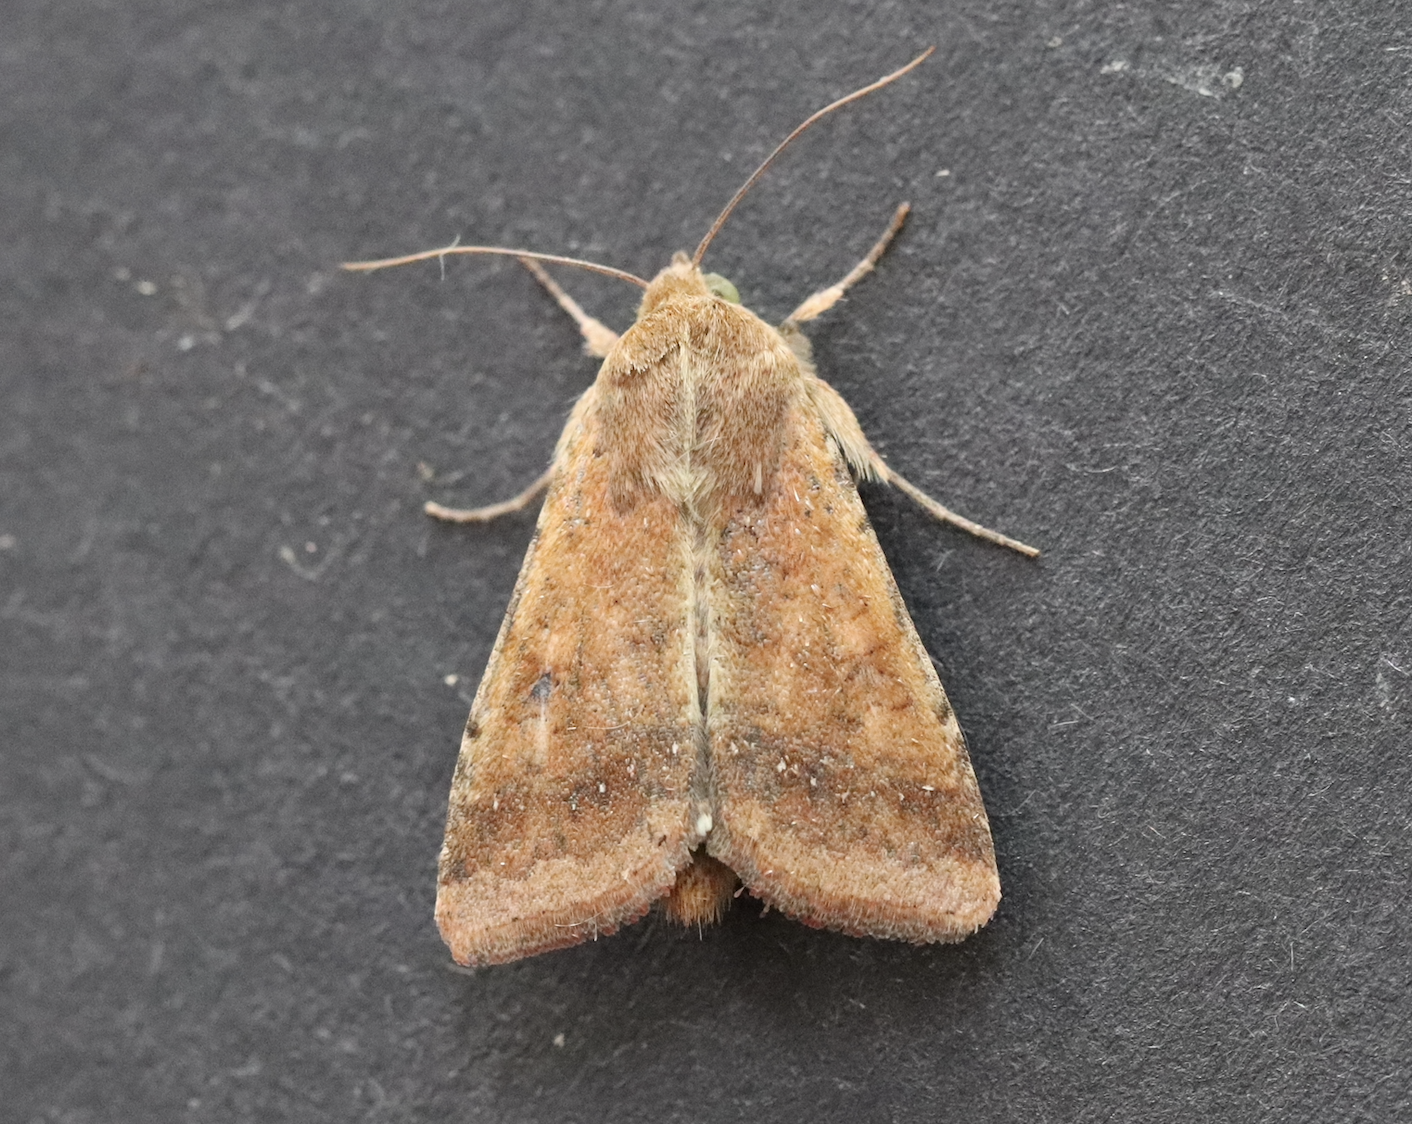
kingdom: Animalia
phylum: Arthropoda
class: Insecta
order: Lepidoptera
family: Noctuidae
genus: Helicoverpa
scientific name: Helicoverpa armigera
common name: Cotton bollworm
